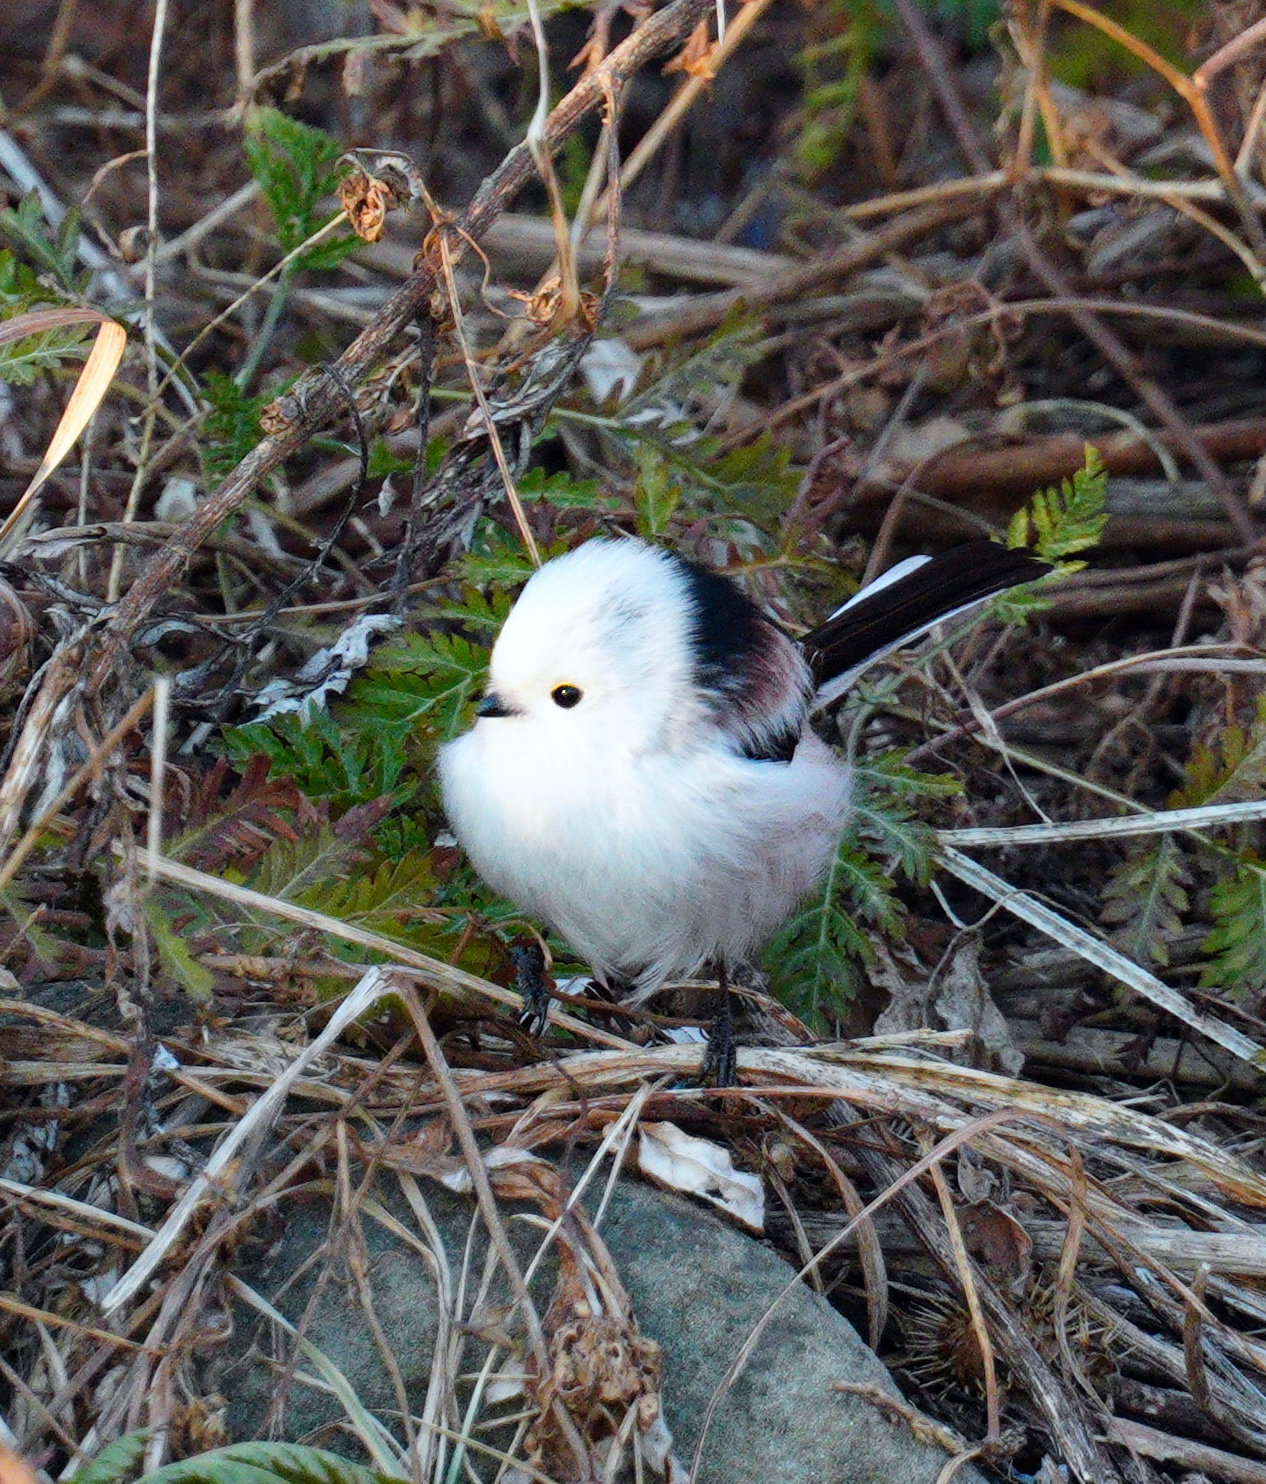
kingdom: Animalia
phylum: Chordata
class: Aves
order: Passeriformes
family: Aegithalidae
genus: Aegithalos
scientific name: Aegithalos caudatus
